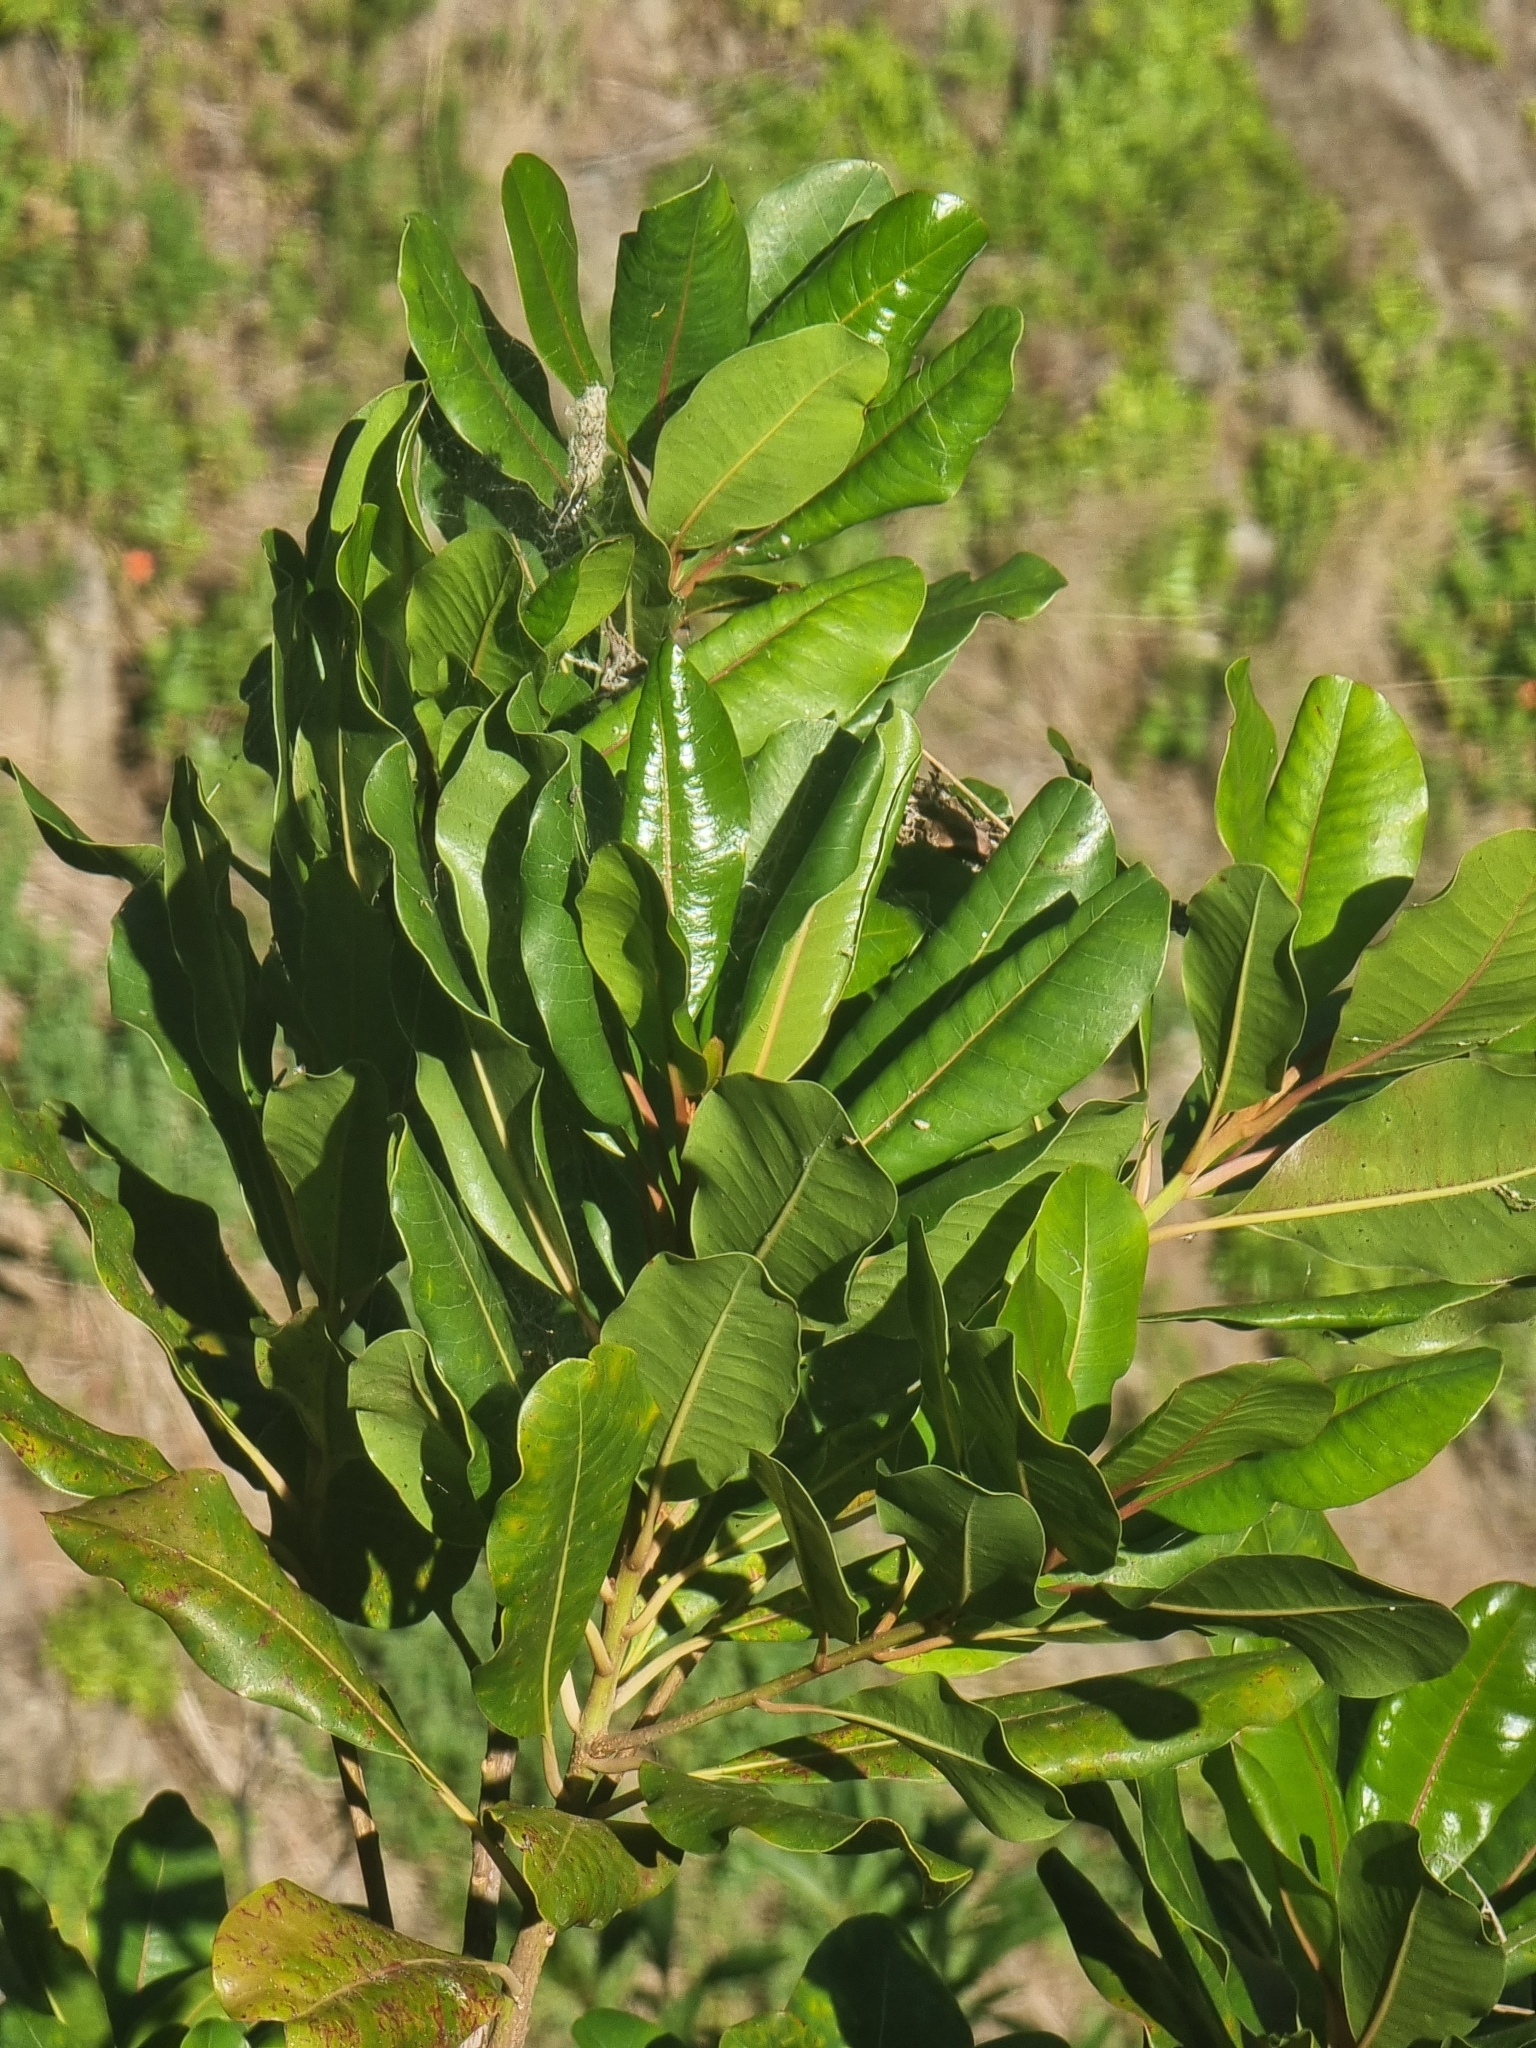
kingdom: Plantae
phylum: Tracheophyta
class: Magnoliopsida
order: Ericales
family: Sapotaceae
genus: Sideroxylon
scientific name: Sideroxylon mirmulans
